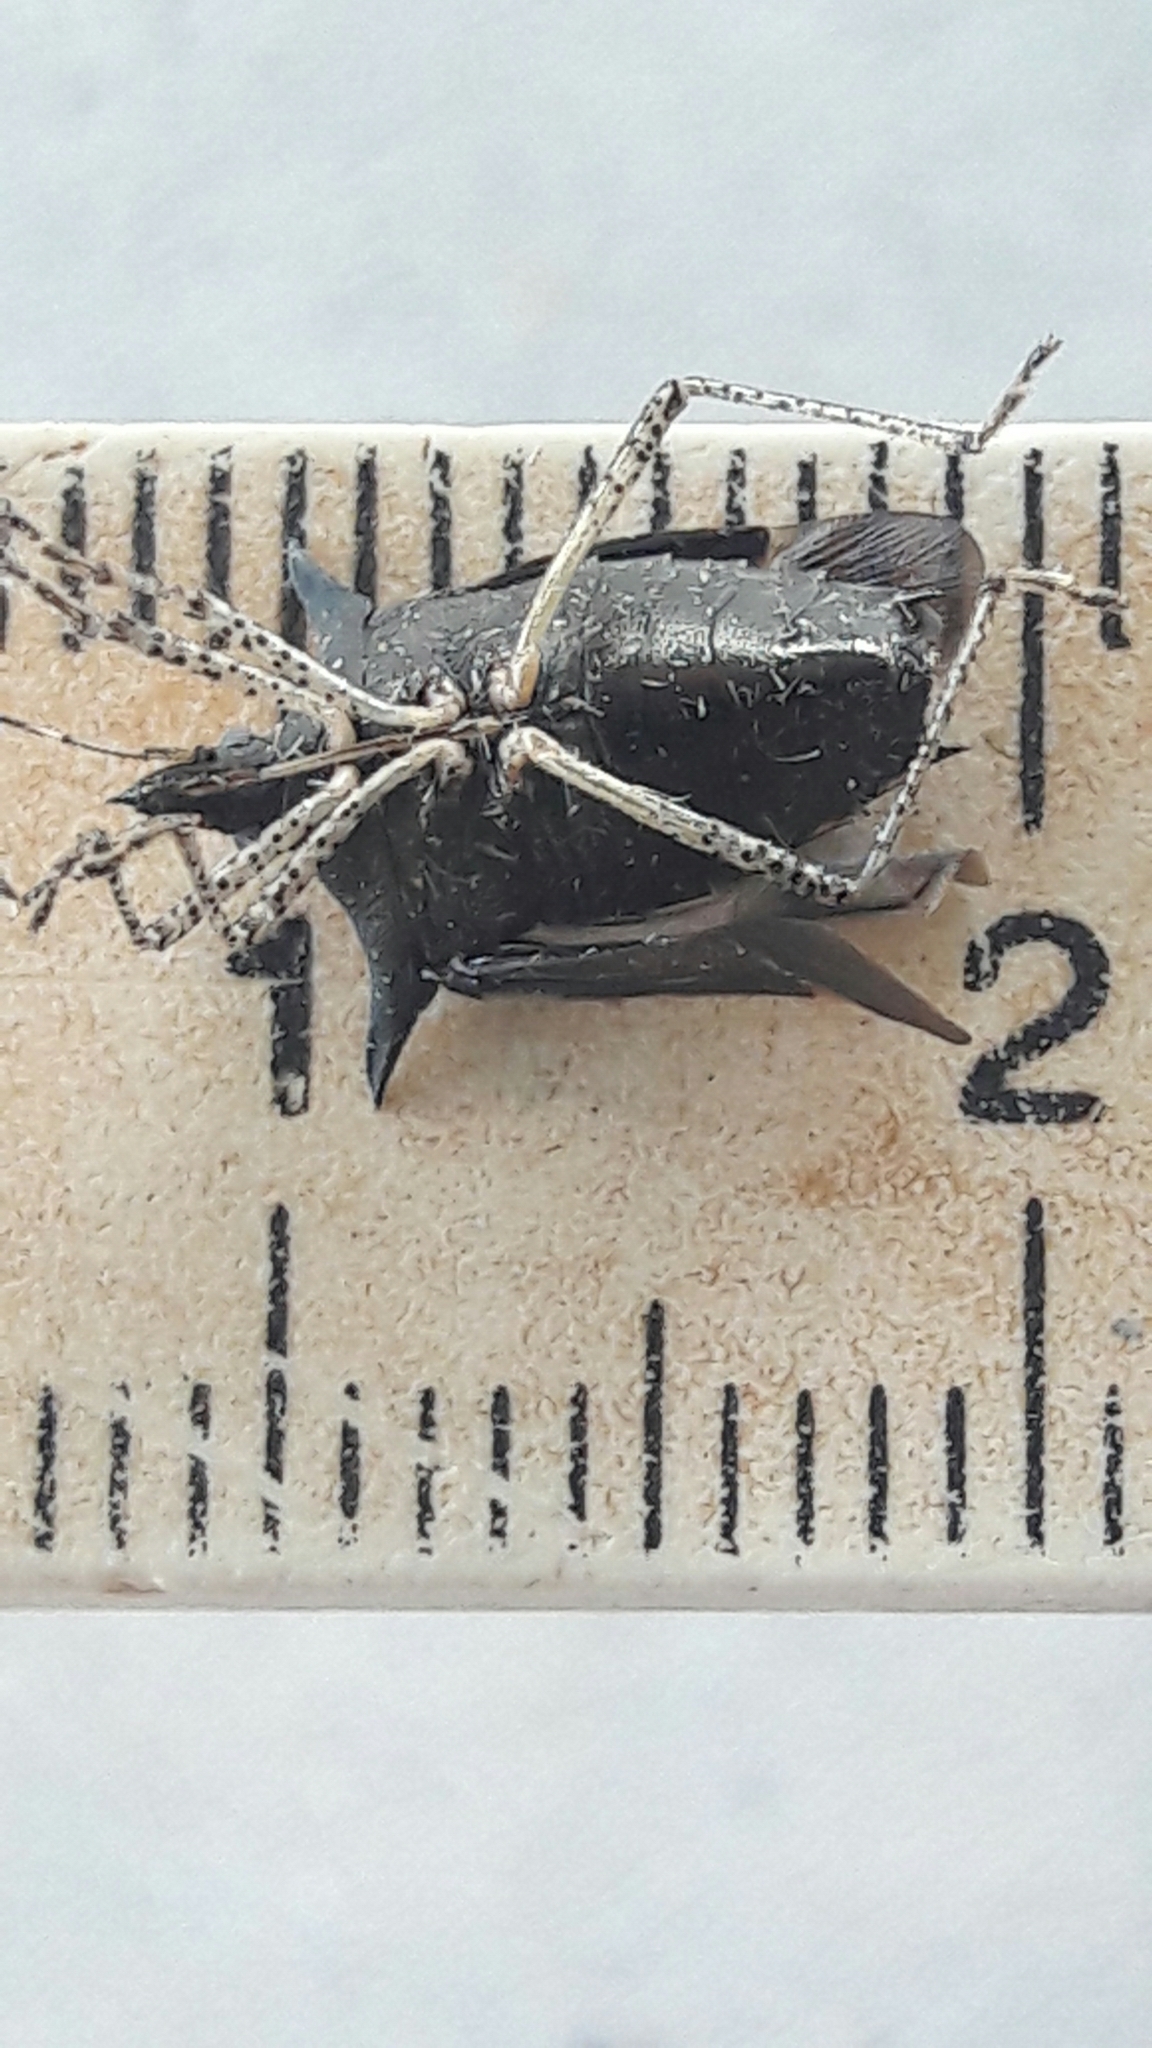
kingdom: Animalia
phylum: Arthropoda
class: Insecta
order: Hemiptera
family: Pentatomidae
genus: Proxys
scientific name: Proxys albopunctulatus
